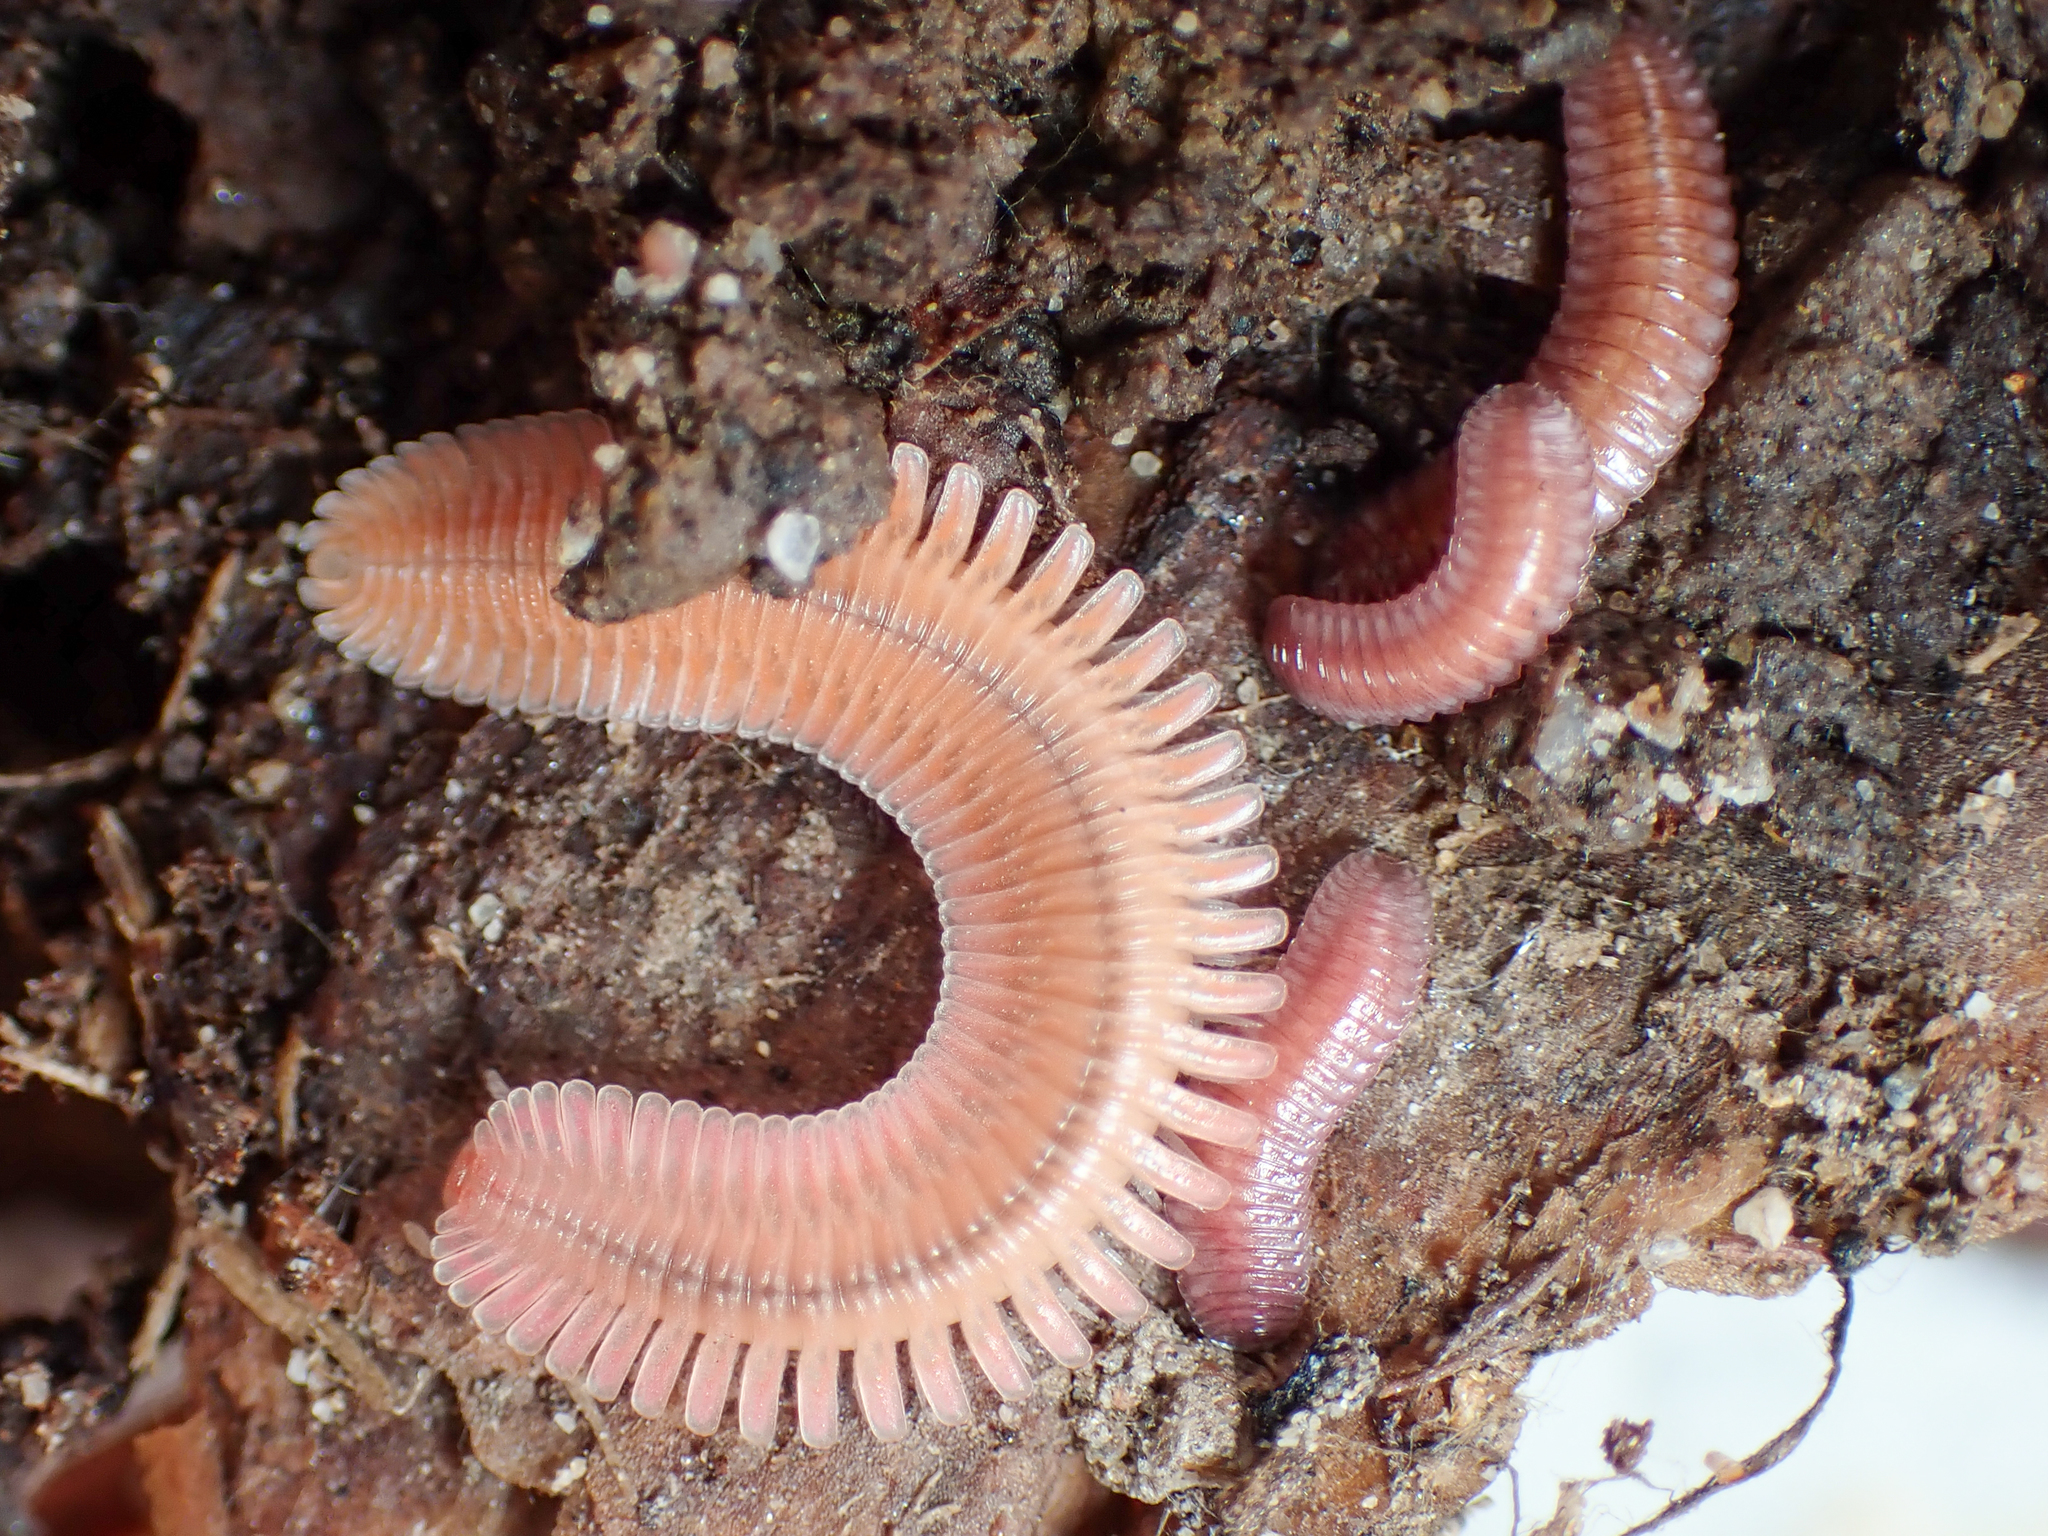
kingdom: Animalia
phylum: Arthropoda
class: Diplopoda
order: Polyzoniida
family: Hirudisomatidae
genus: Octoglena
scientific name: Octoglena gracilipes
